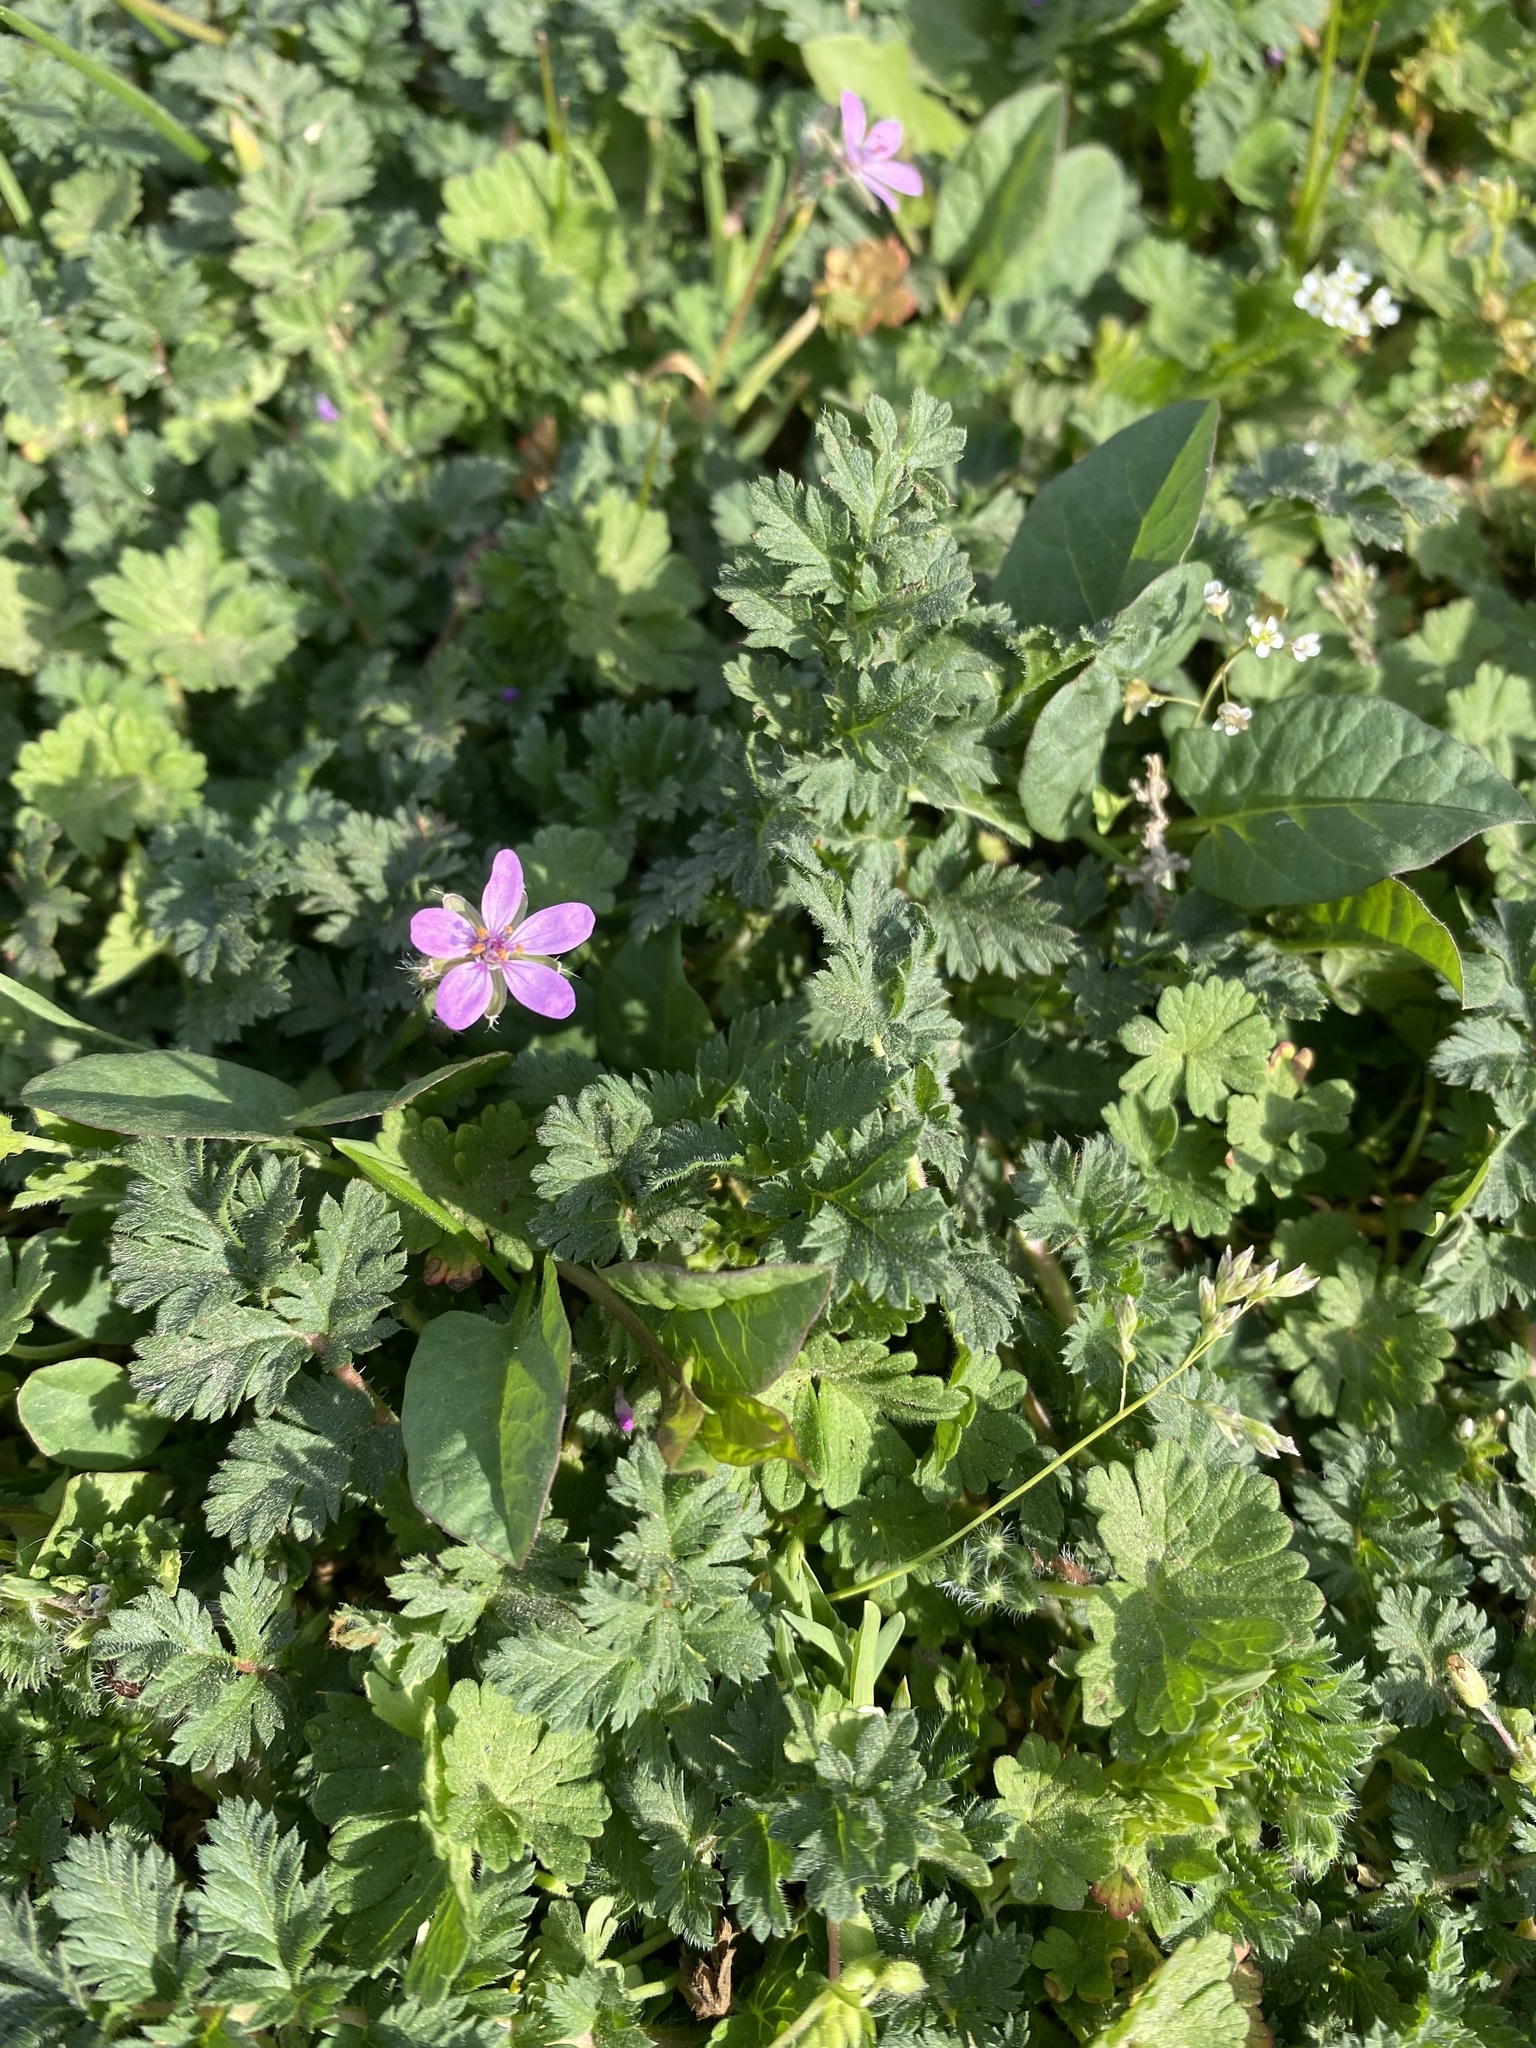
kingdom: Plantae
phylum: Tracheophyta
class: Magnoliopsida
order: Geraniales
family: Geraniaceae
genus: Erodium
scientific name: Erodium cicutarium
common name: Common stork's-bill
